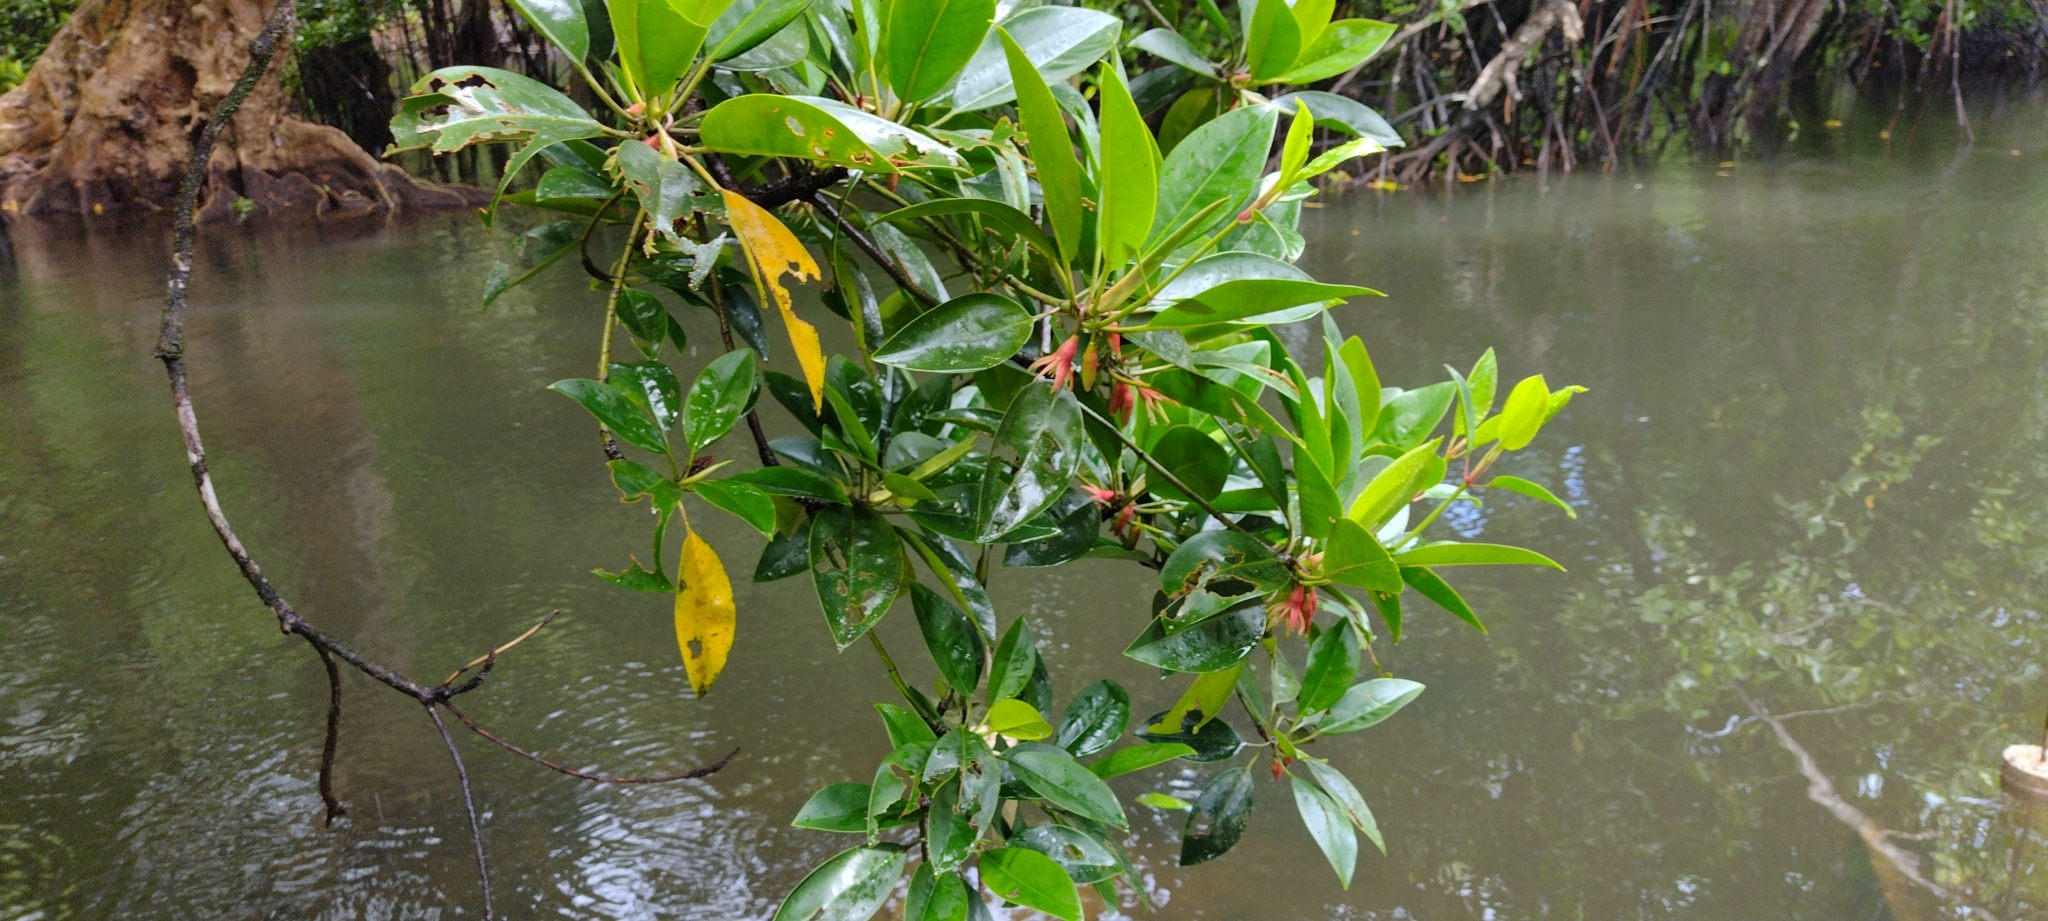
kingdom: Plantae
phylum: Tracheophyta
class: Magnoliopsida
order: Malpighiales
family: Rhizophoraceae
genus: Bruguiera
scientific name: Bruguiera gymnorhiza
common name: Oriental mangrove
